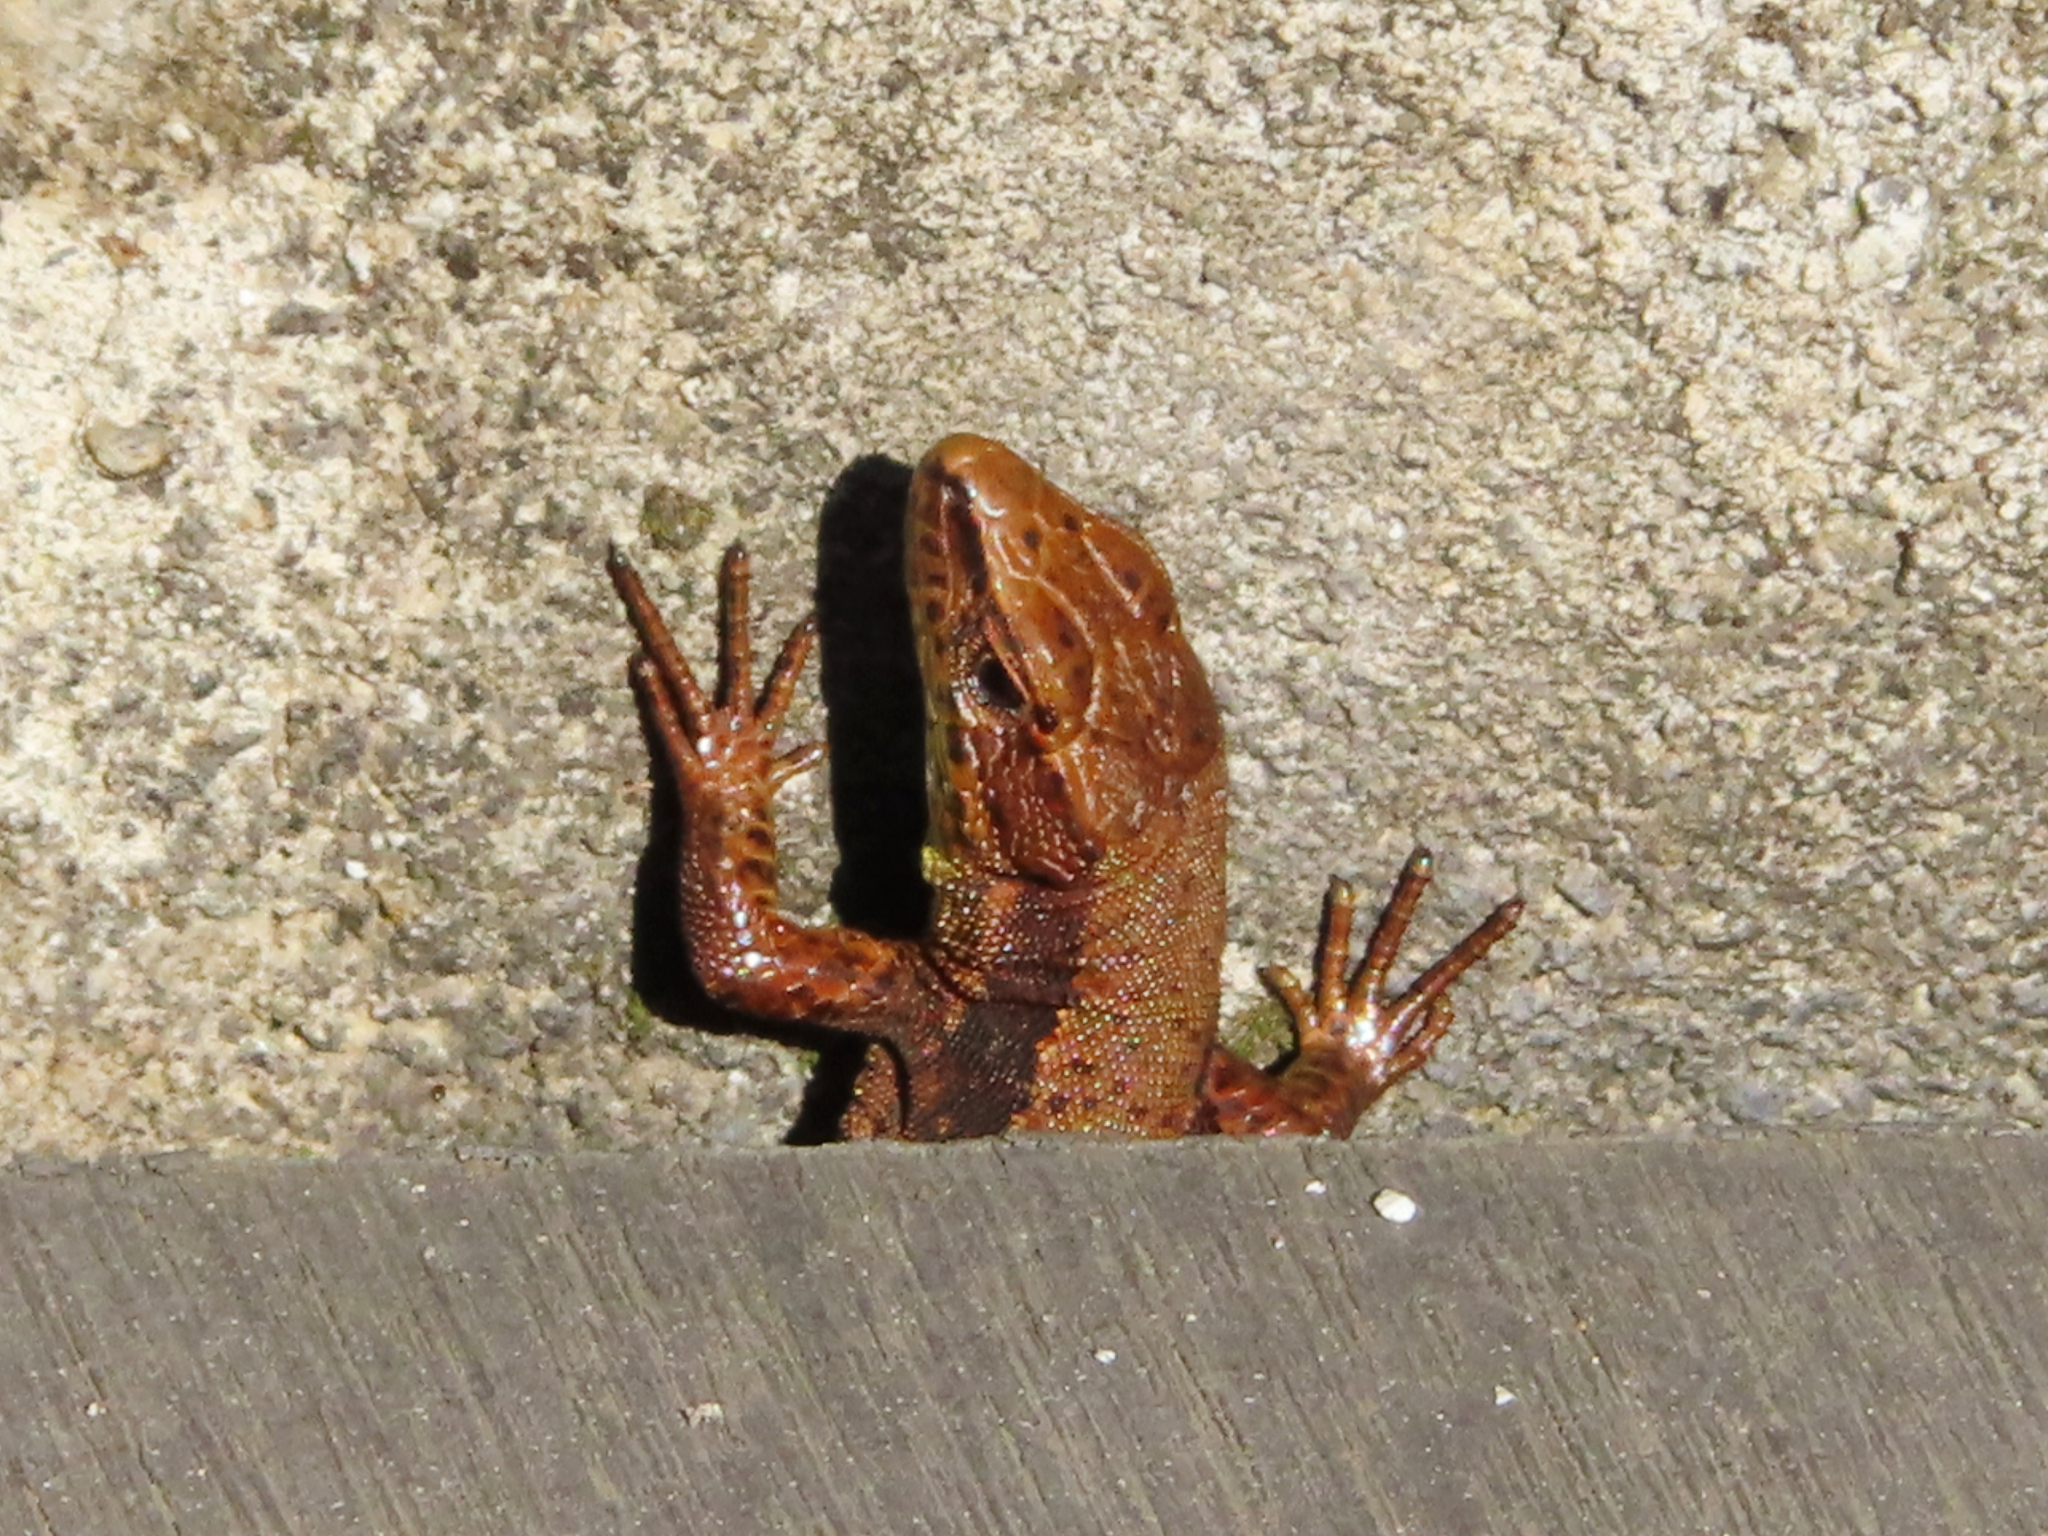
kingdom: Animalia
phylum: Chordata
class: Squamata
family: Lacertidae
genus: Darevskia
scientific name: Darevskia derjugini
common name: Derjugin's lizard
